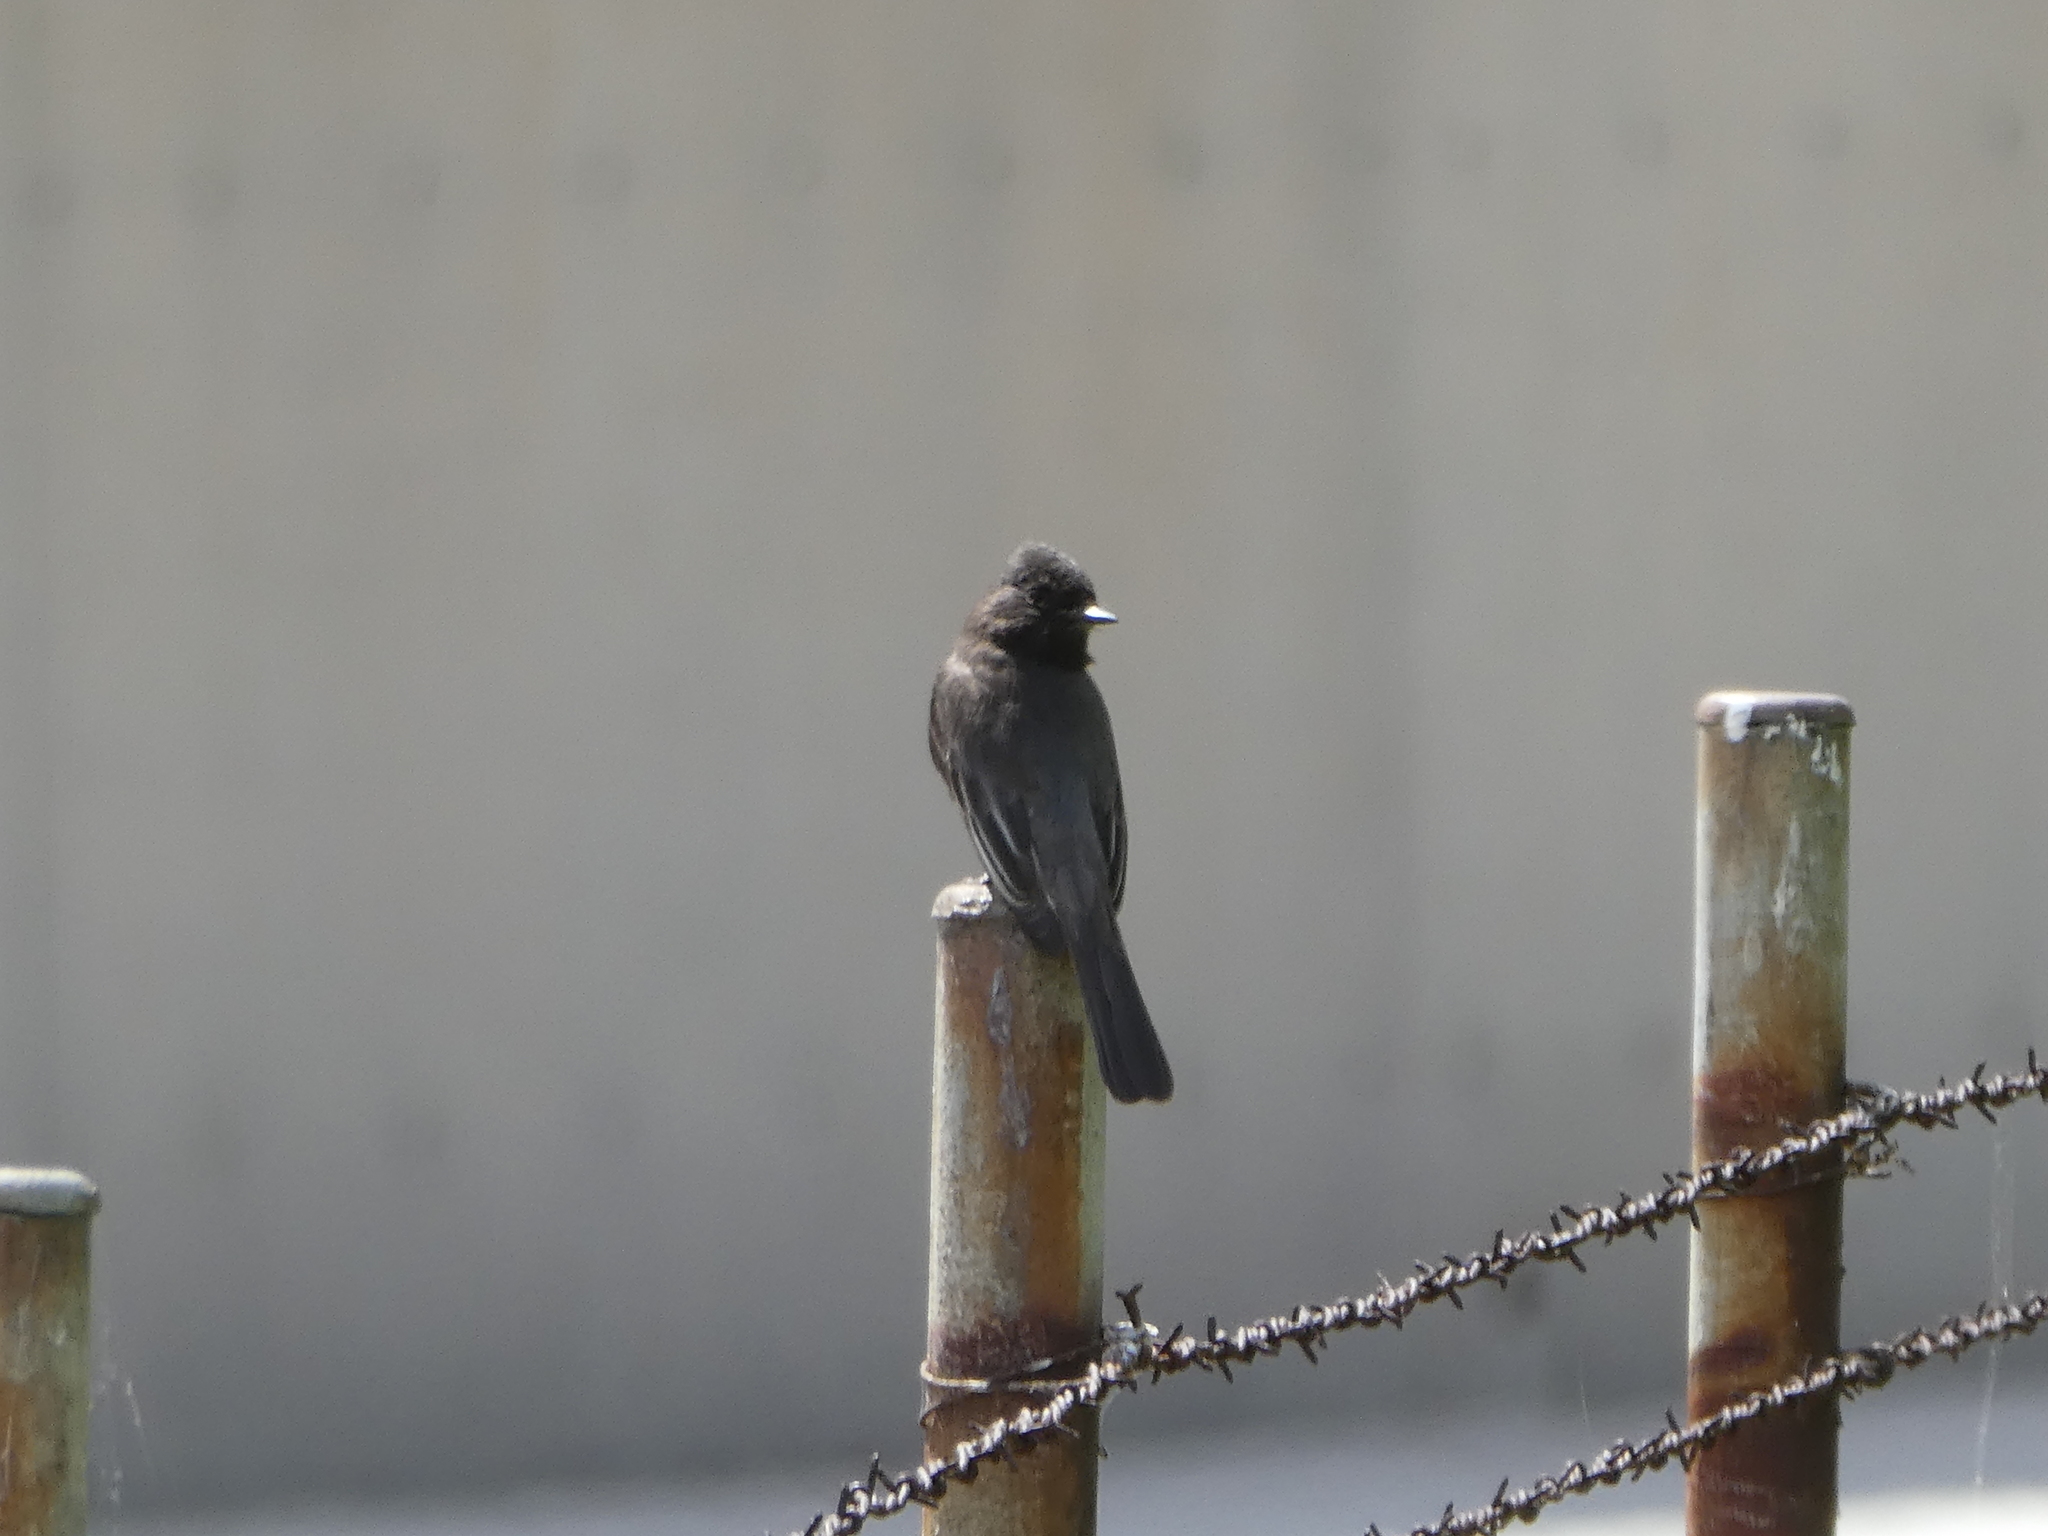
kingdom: Animalia
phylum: Chordata
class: Aves
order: Passeriformes
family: Tyrannidae
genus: Sayornis
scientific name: Sayornis nigricans
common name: Black phoebe
